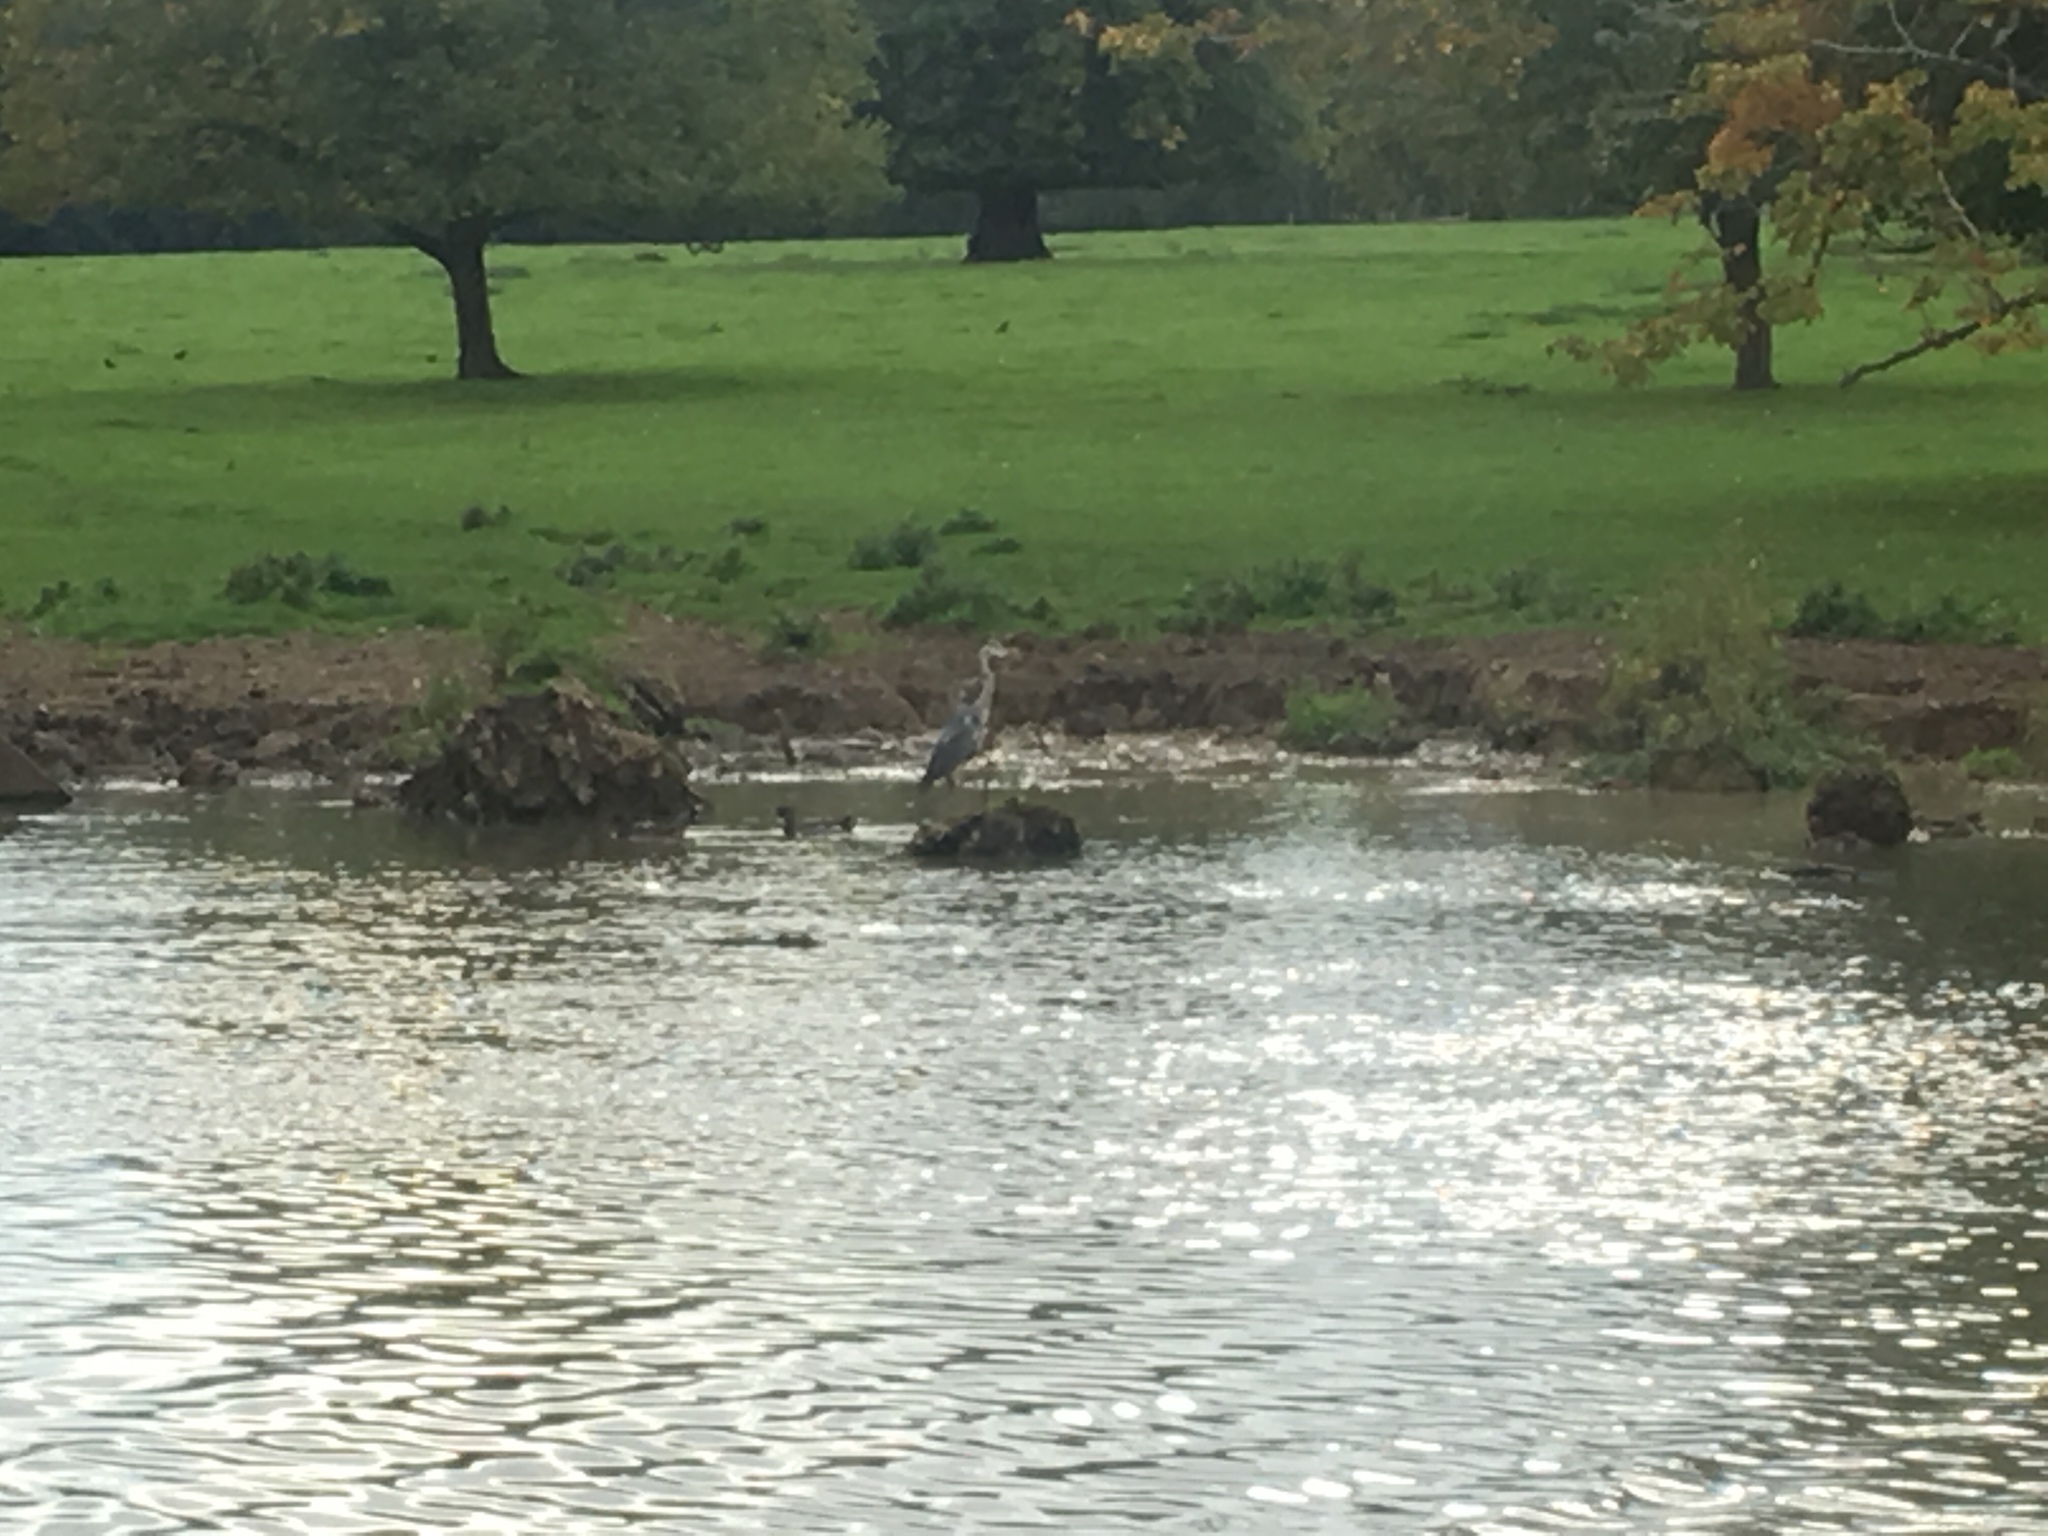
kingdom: Animalia
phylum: Chordata
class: Aves
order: Pelecaniformes
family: Ardeidae
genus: Ardea
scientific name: Ardea cinerea
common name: Grey heron
